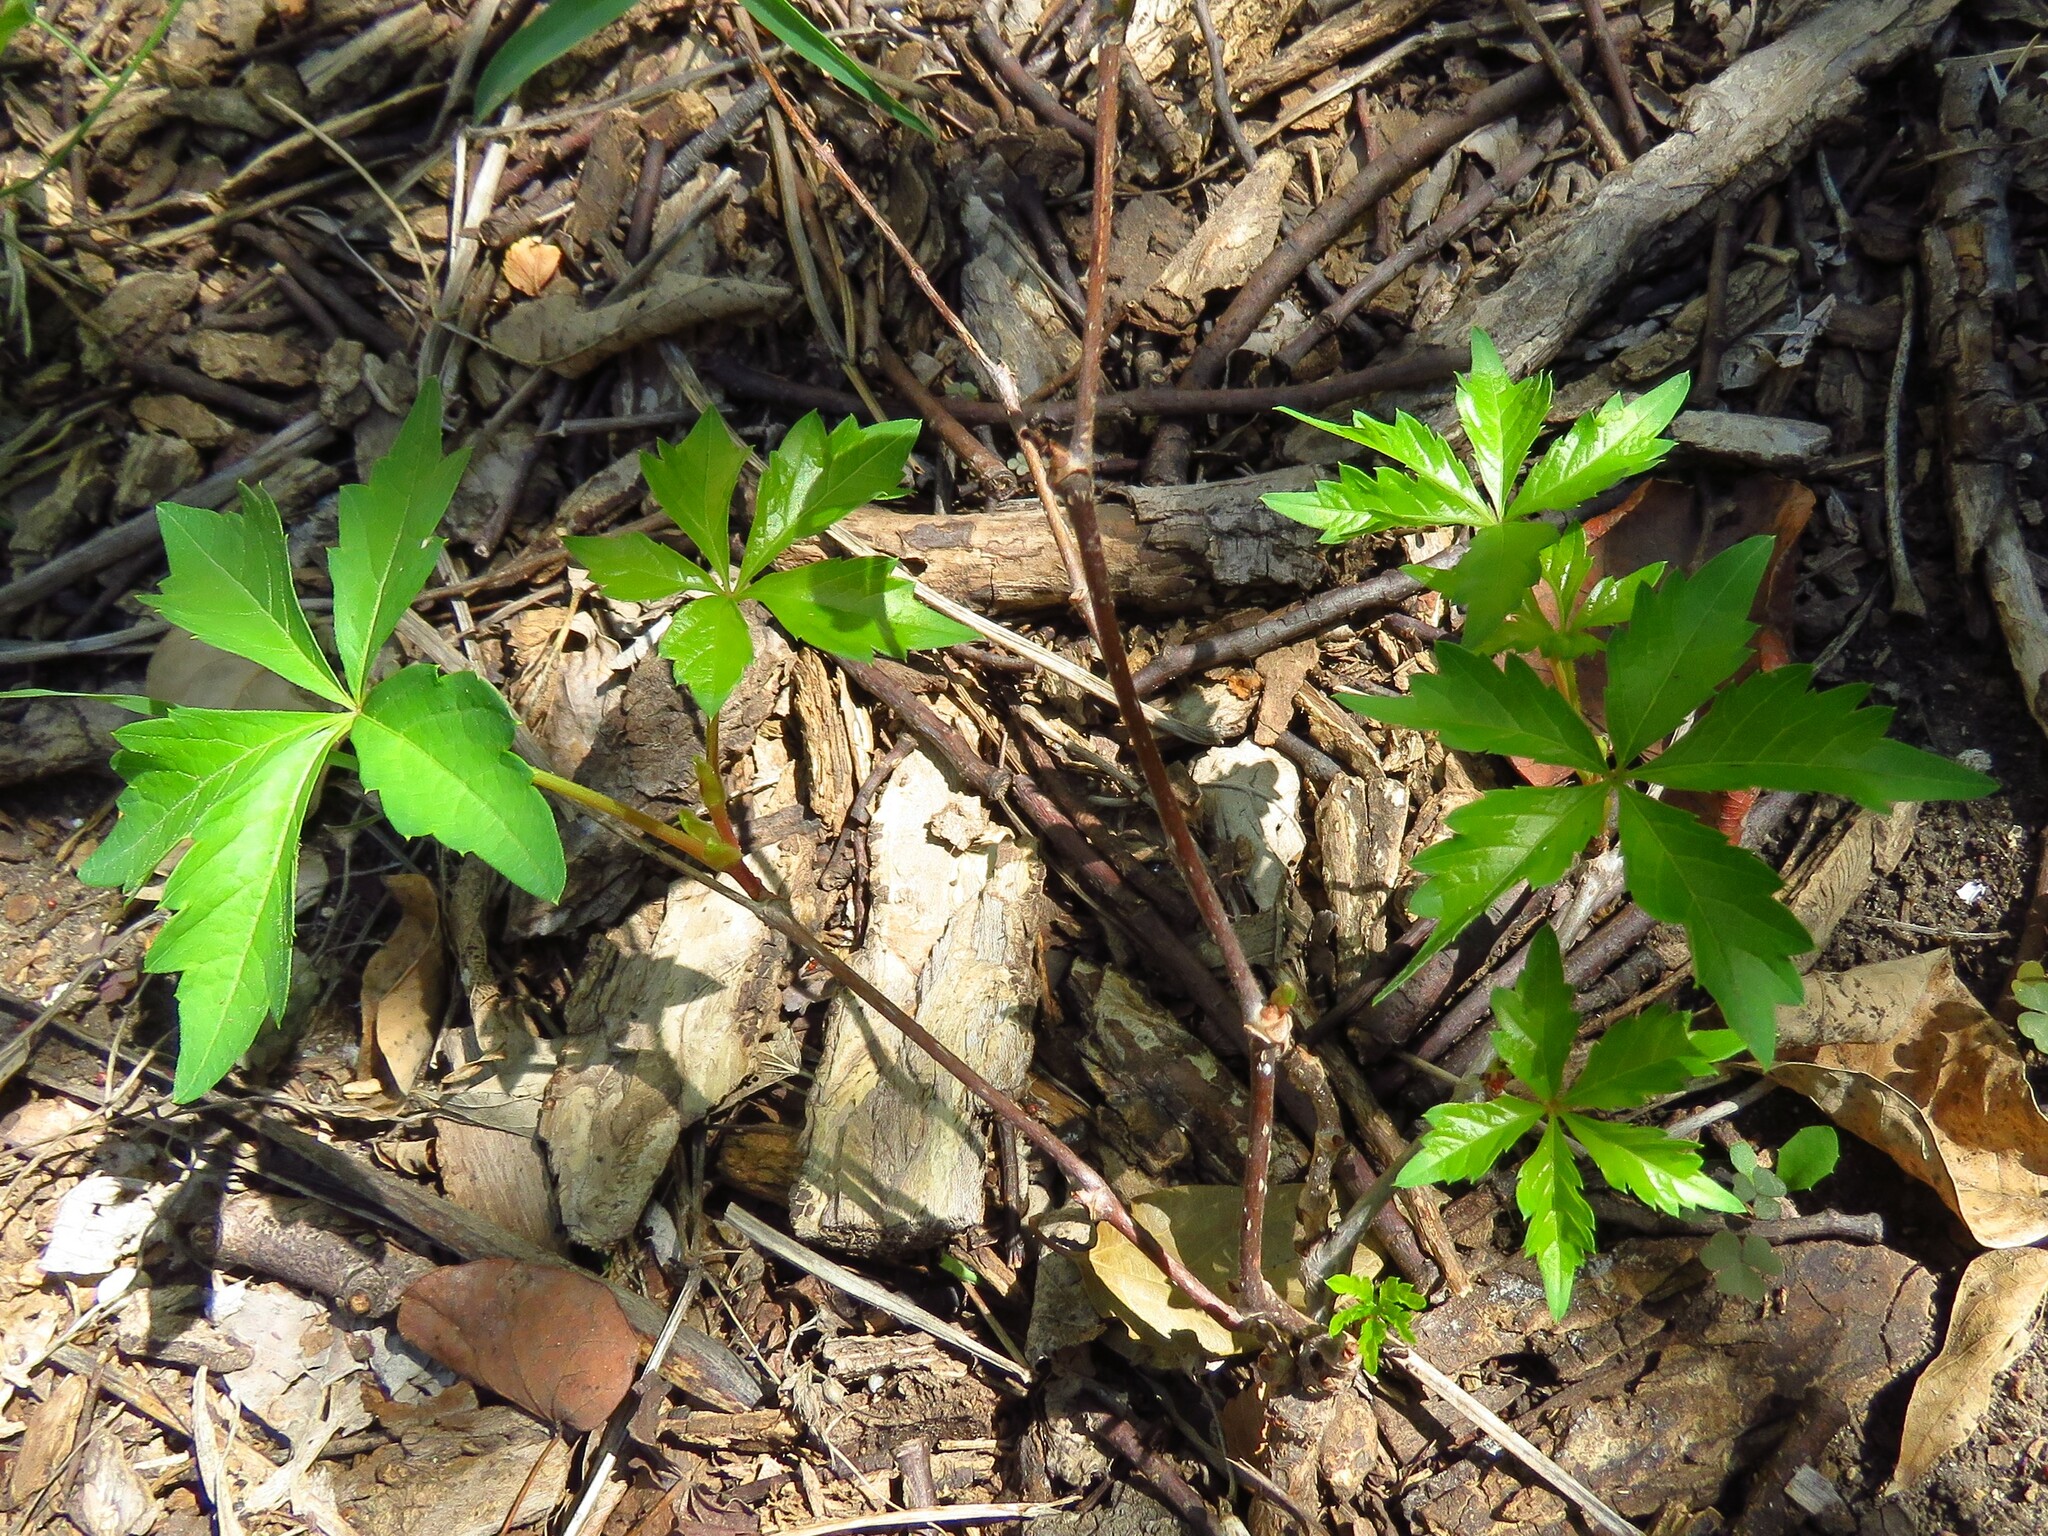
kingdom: Plantae
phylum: Tracheophyta
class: Magnoliopsida
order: Vitales
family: Vitaceae
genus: Parthenocissus
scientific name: Parthenocissus quinquefolia
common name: Virginia-creeper
